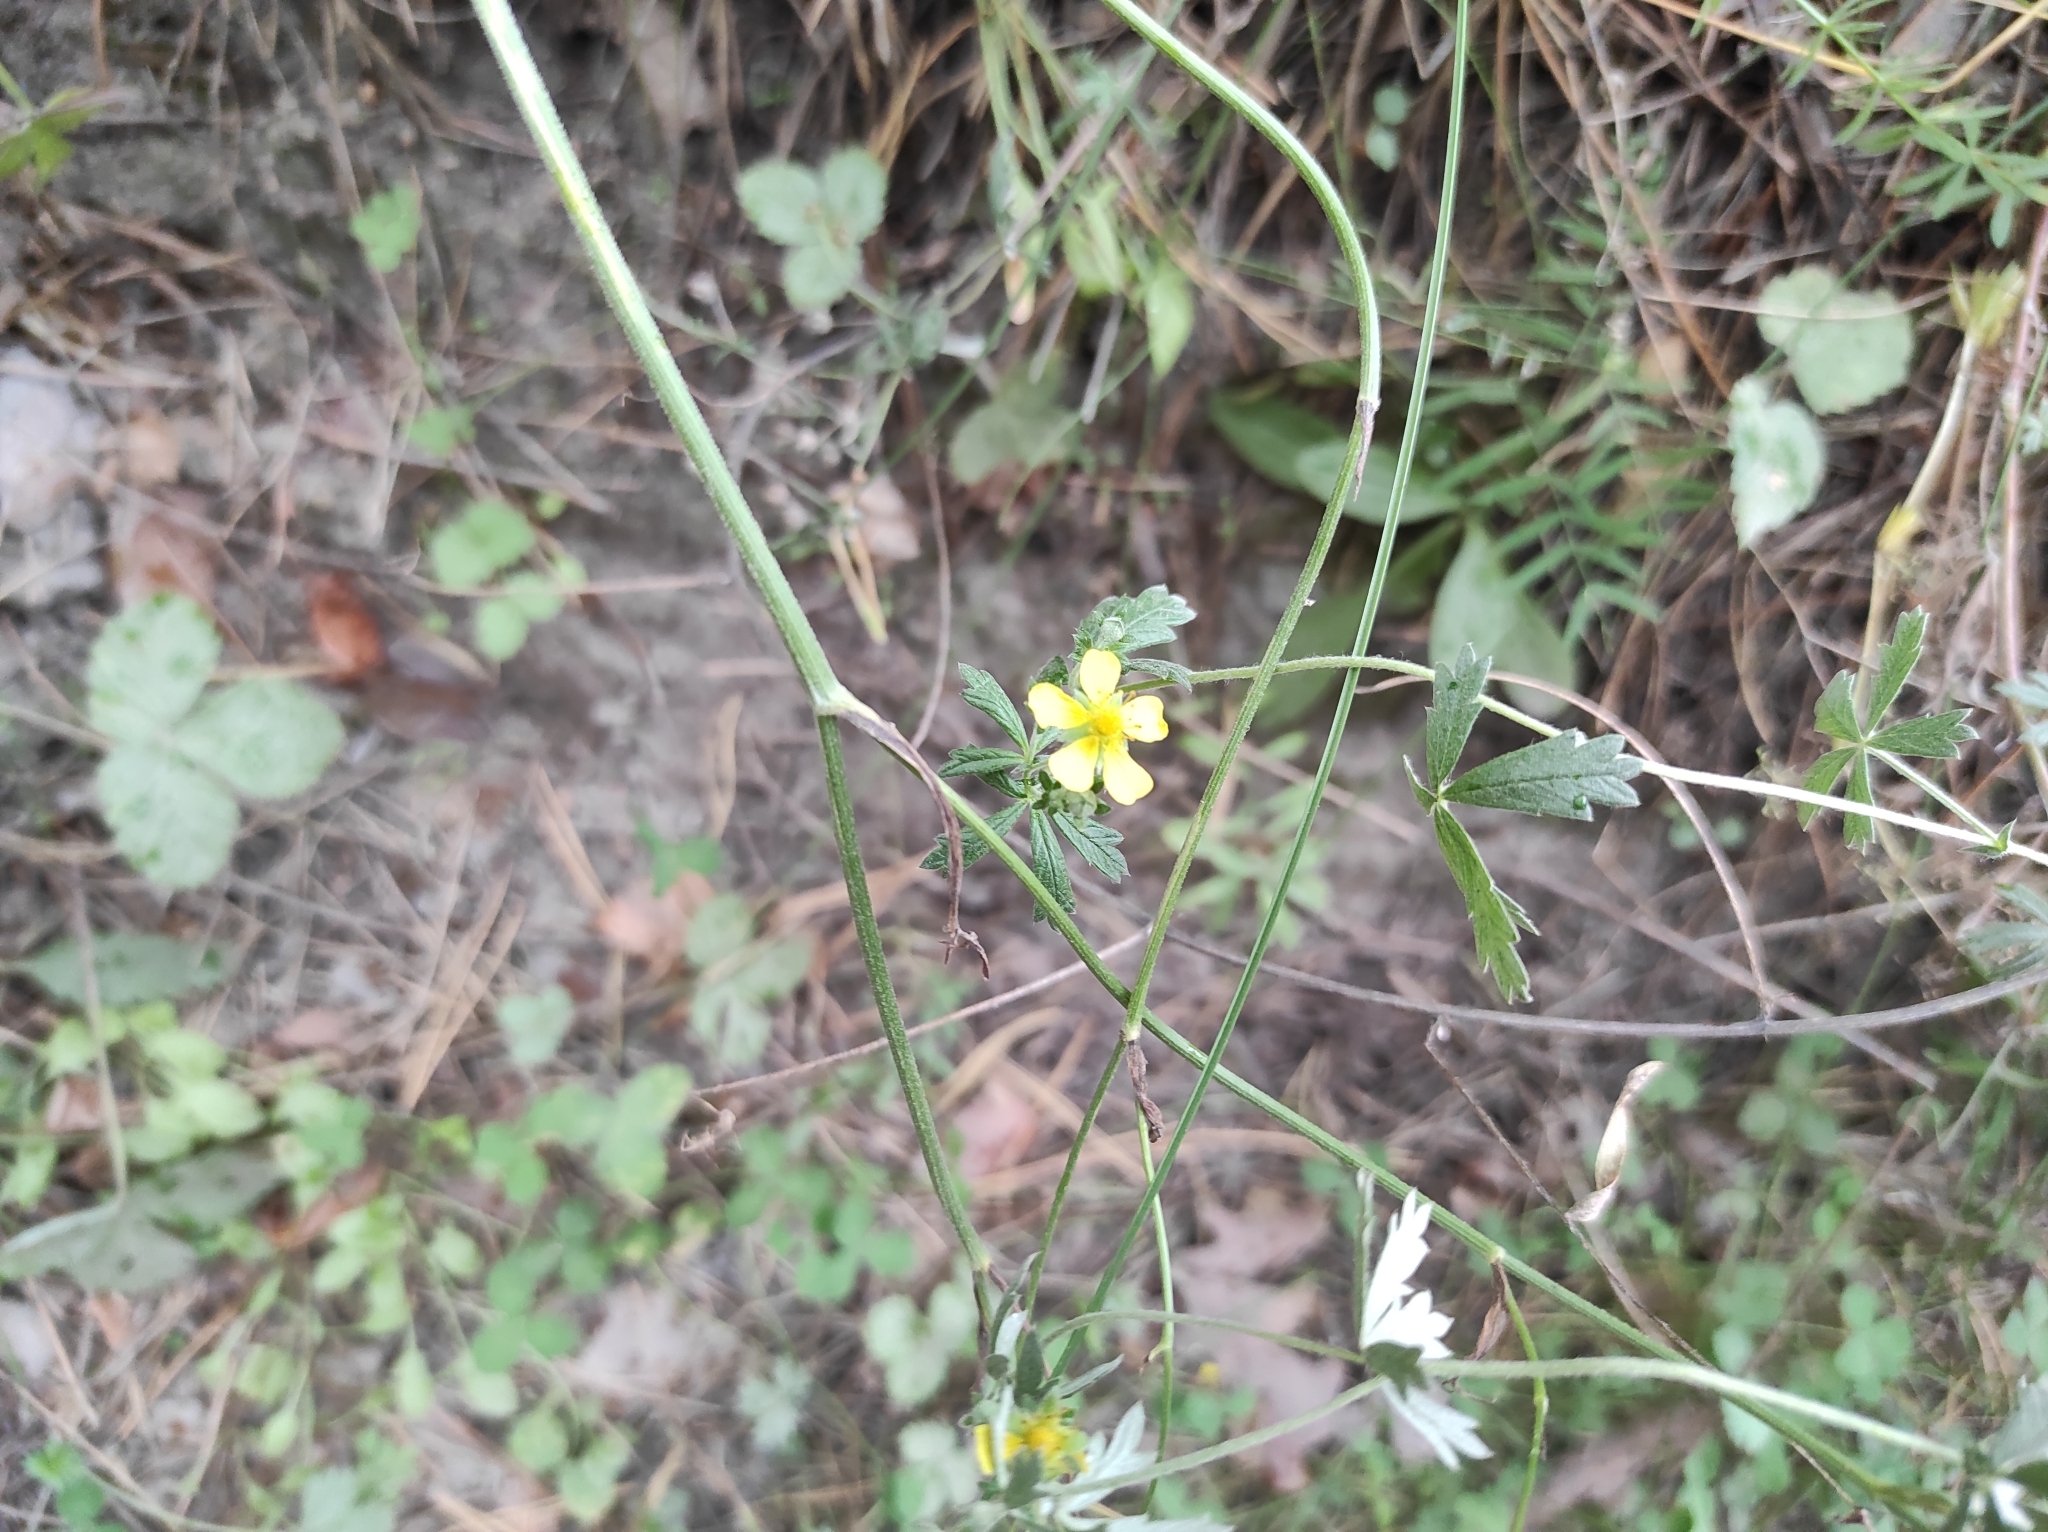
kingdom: Plantae
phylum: Tracheophyta
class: Magnoliopsida
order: Rosales
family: Rosaceae
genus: Potentilla
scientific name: Potentilla argentea
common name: Hoary cinquefoil
